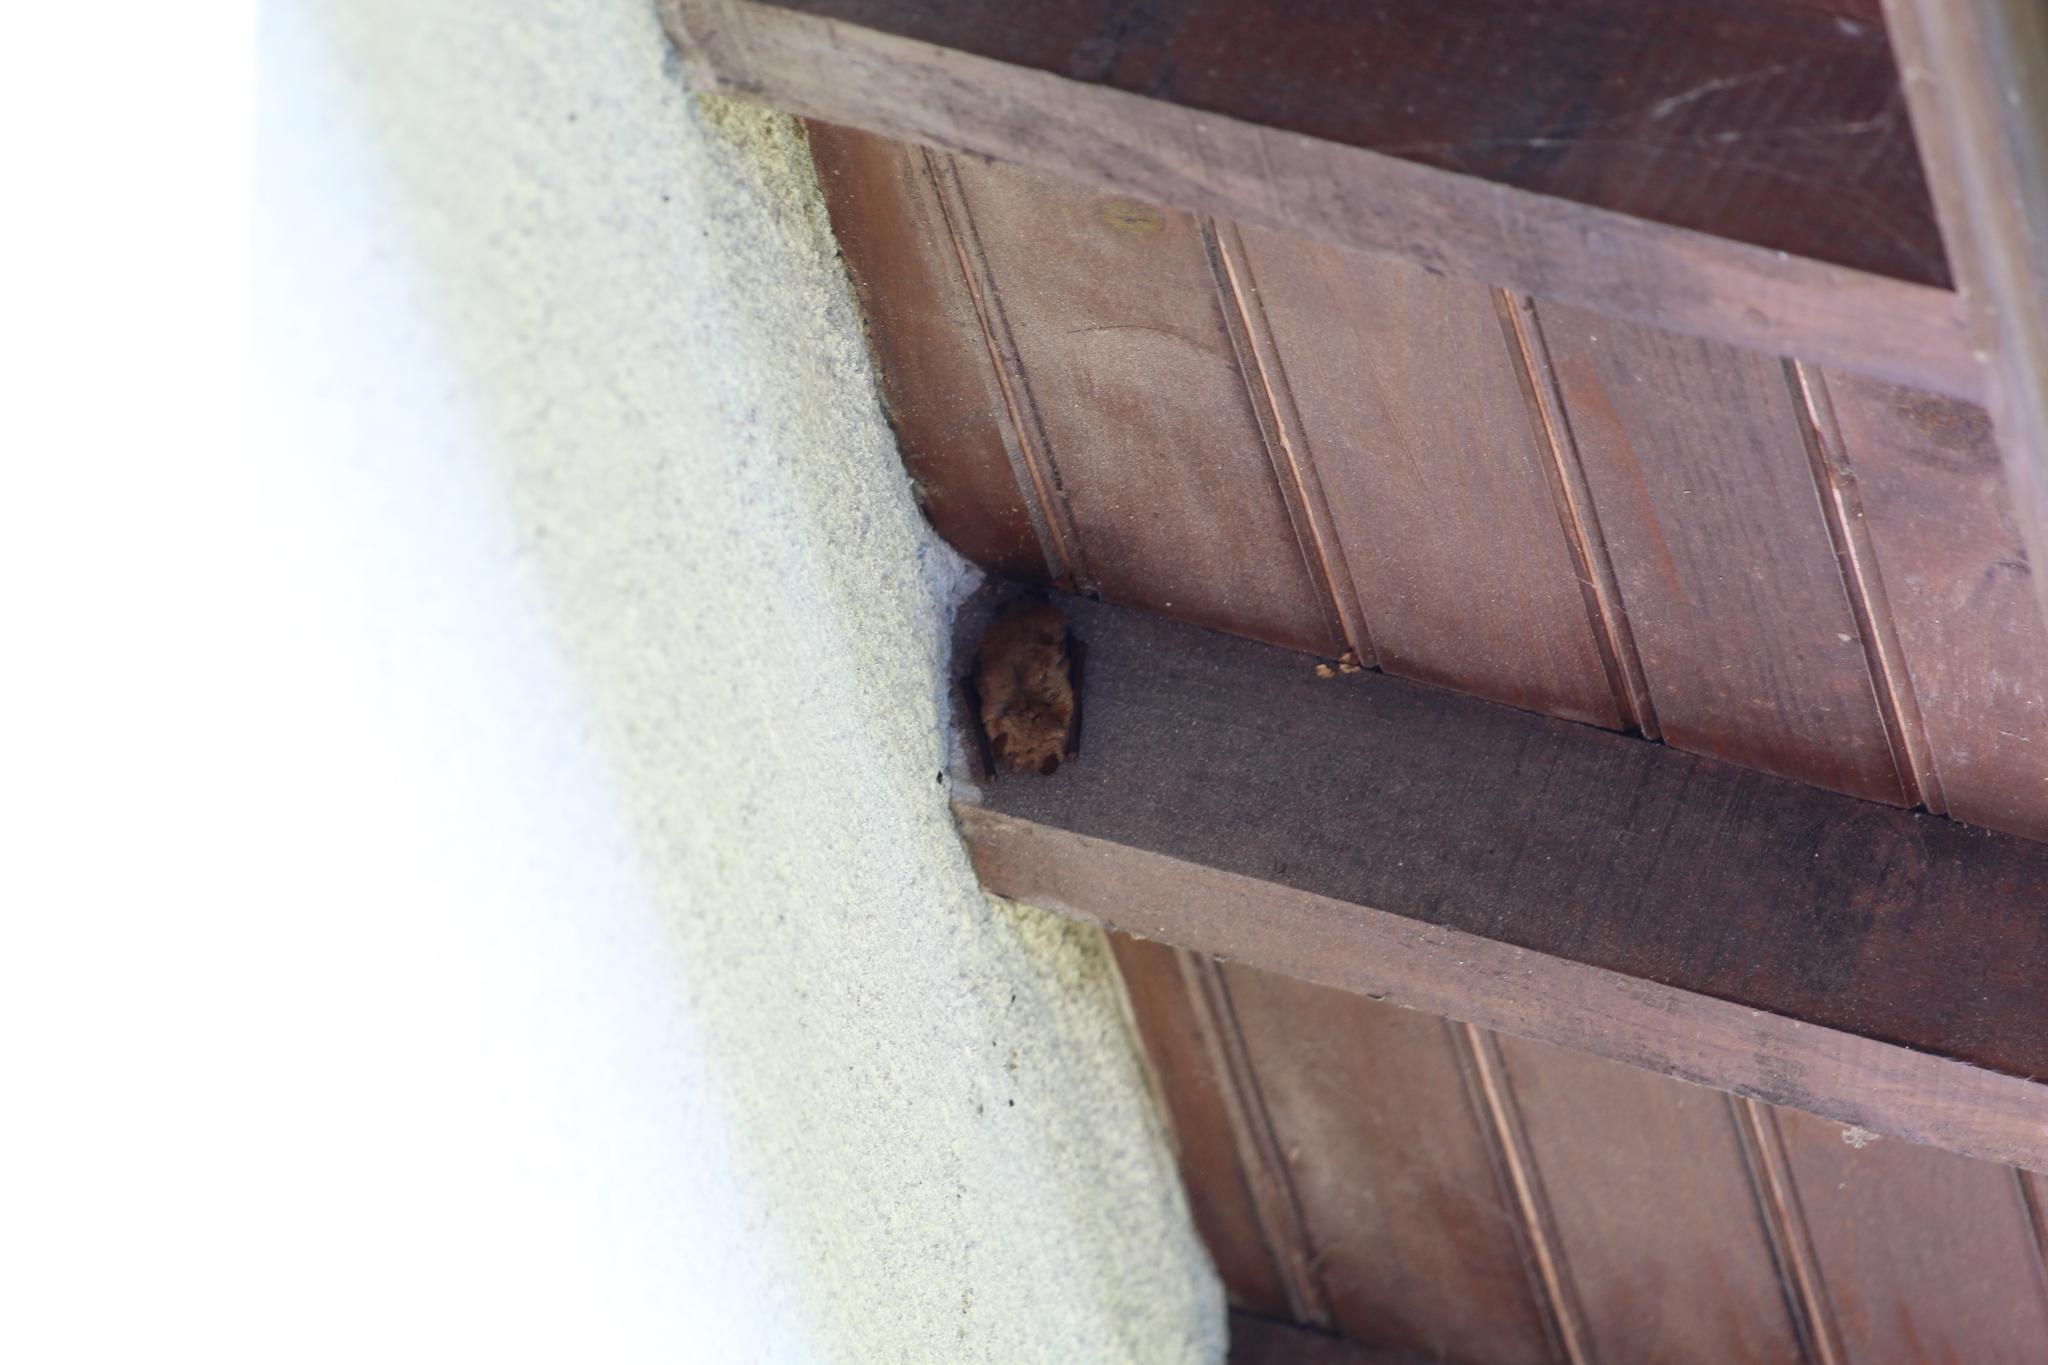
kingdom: Animalia
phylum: Chordata
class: Mammalia
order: Chiroptera
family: Vespertilionidae
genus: Myotis
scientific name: Myotis emarginatus
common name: Geoffroy's bat
